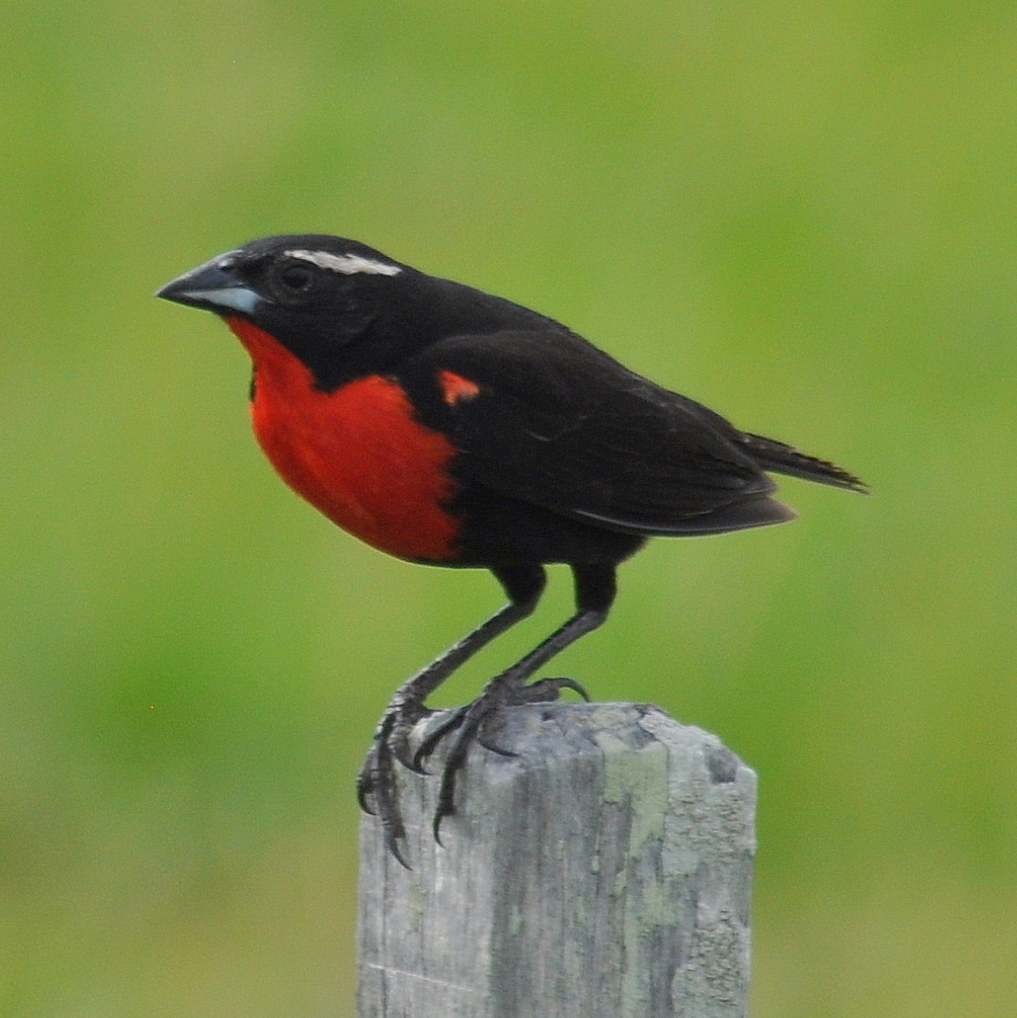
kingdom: Animalia
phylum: Chordata
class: Aves
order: Passeriformes
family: Icteridae
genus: Sturnella
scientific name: Sturnella superciliaris
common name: White-browed blackbird
